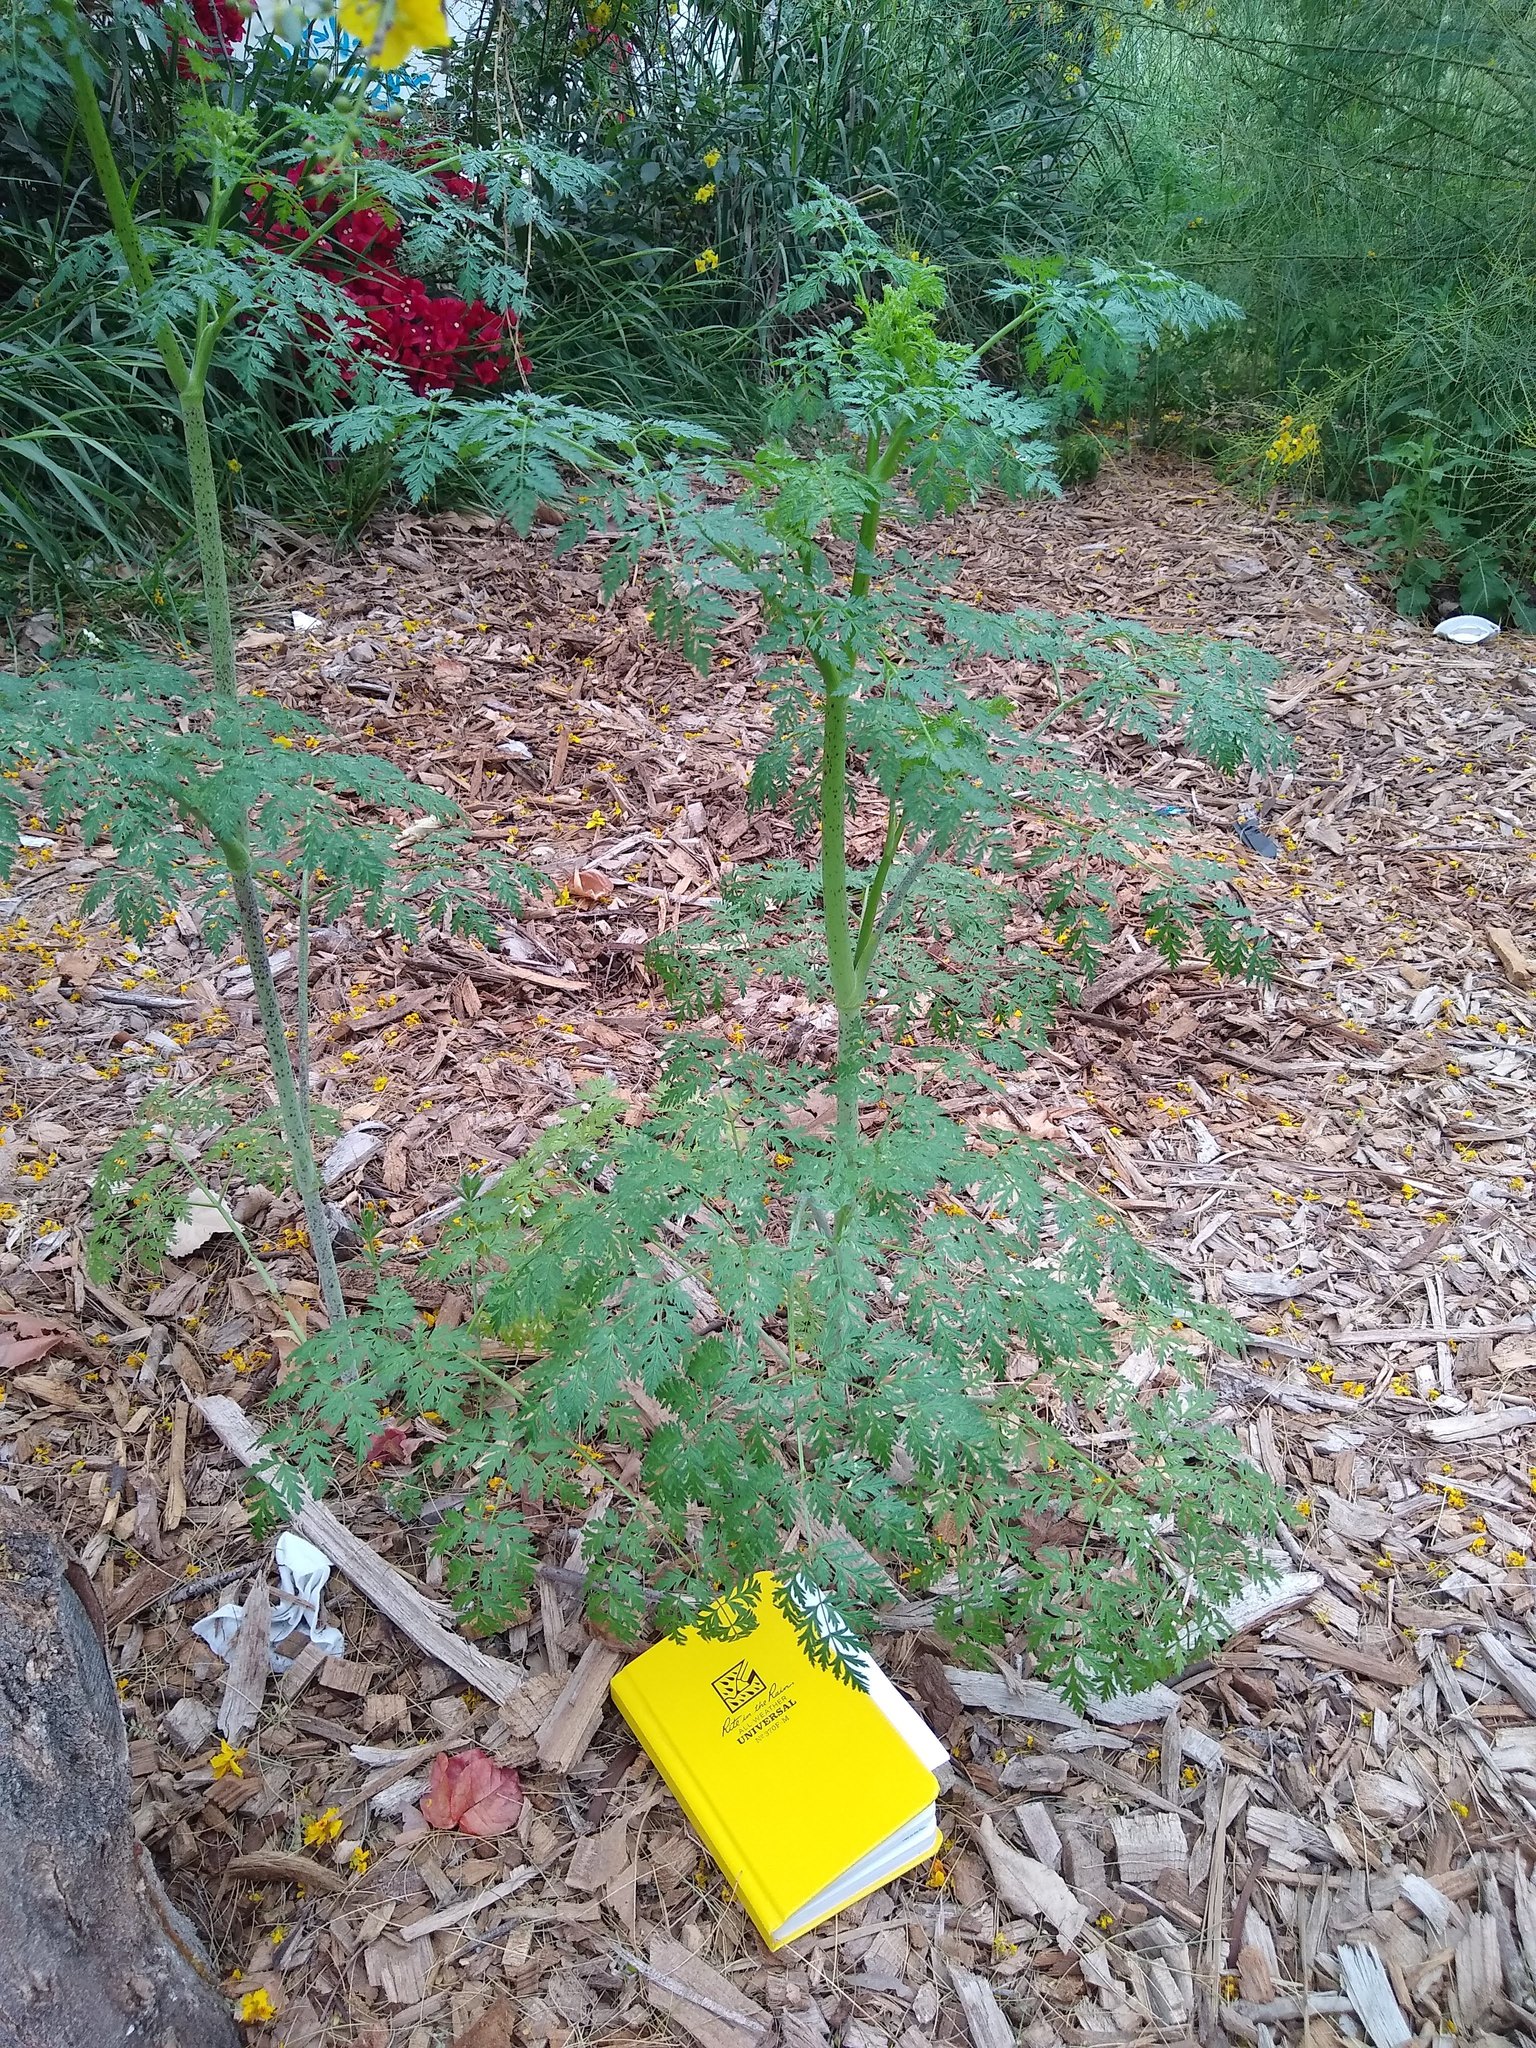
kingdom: Plantae
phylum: Tracheophyta
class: Magnoliopsida
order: Apiales
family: Apiaceae
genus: Conium
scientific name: Conium maculatum
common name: Hemlock
